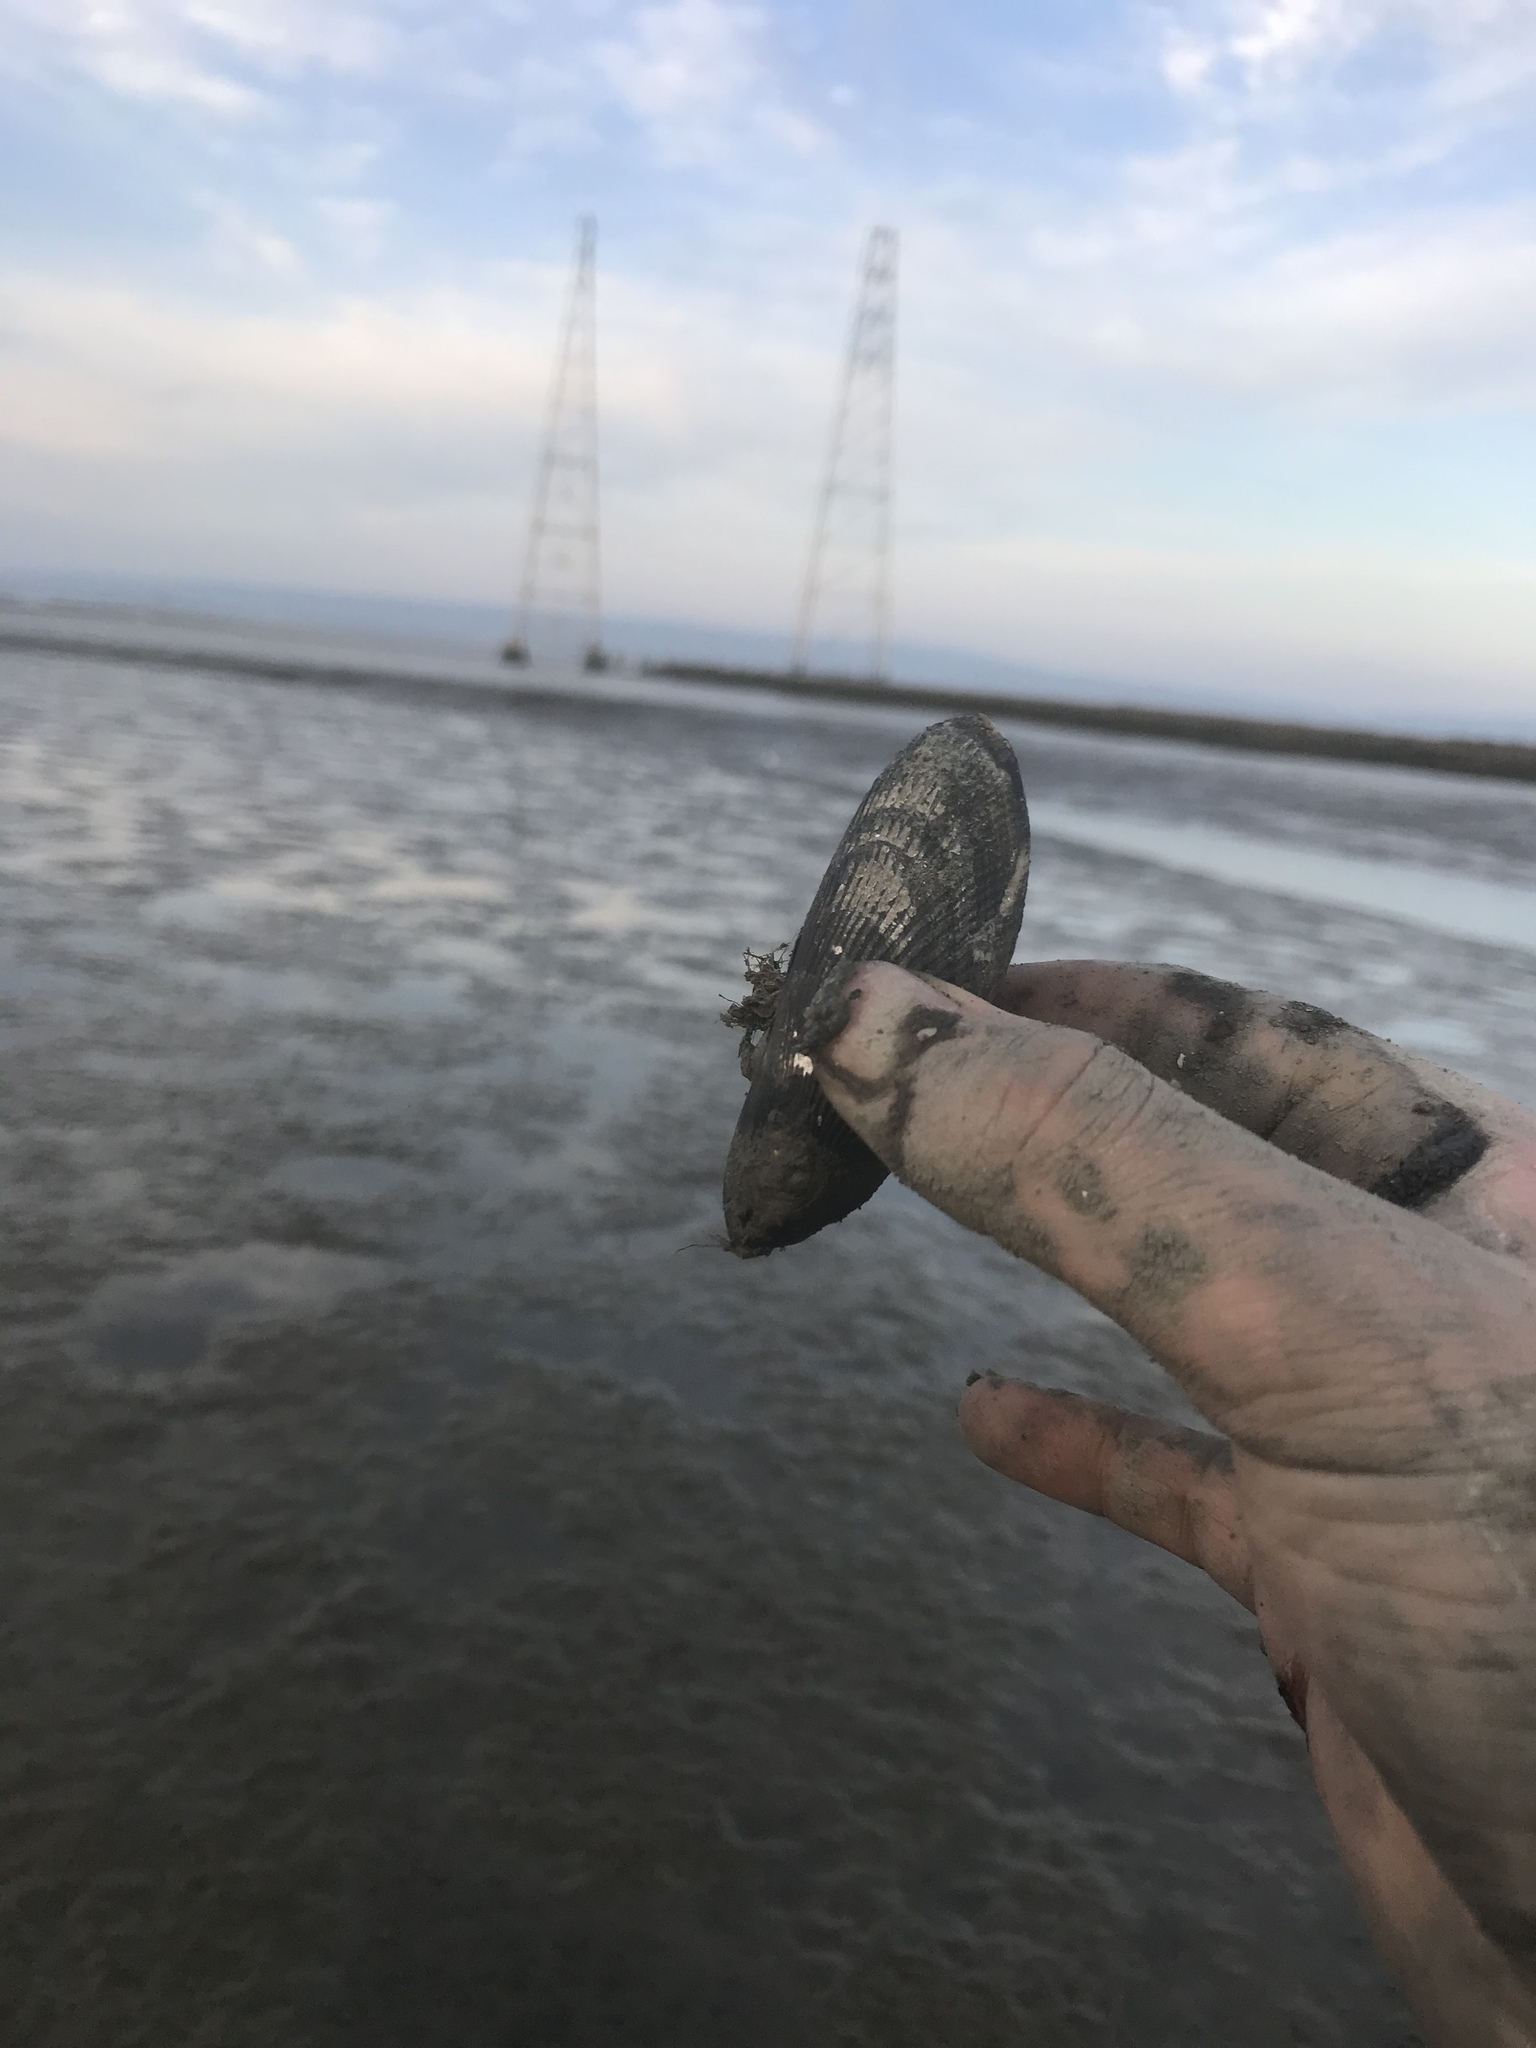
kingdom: Animalia
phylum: Mollusca
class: Bivalvia
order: Mytilida
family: Mytilidae
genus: Geukensia
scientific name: Geukensia demissa
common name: Ribbed mussel
